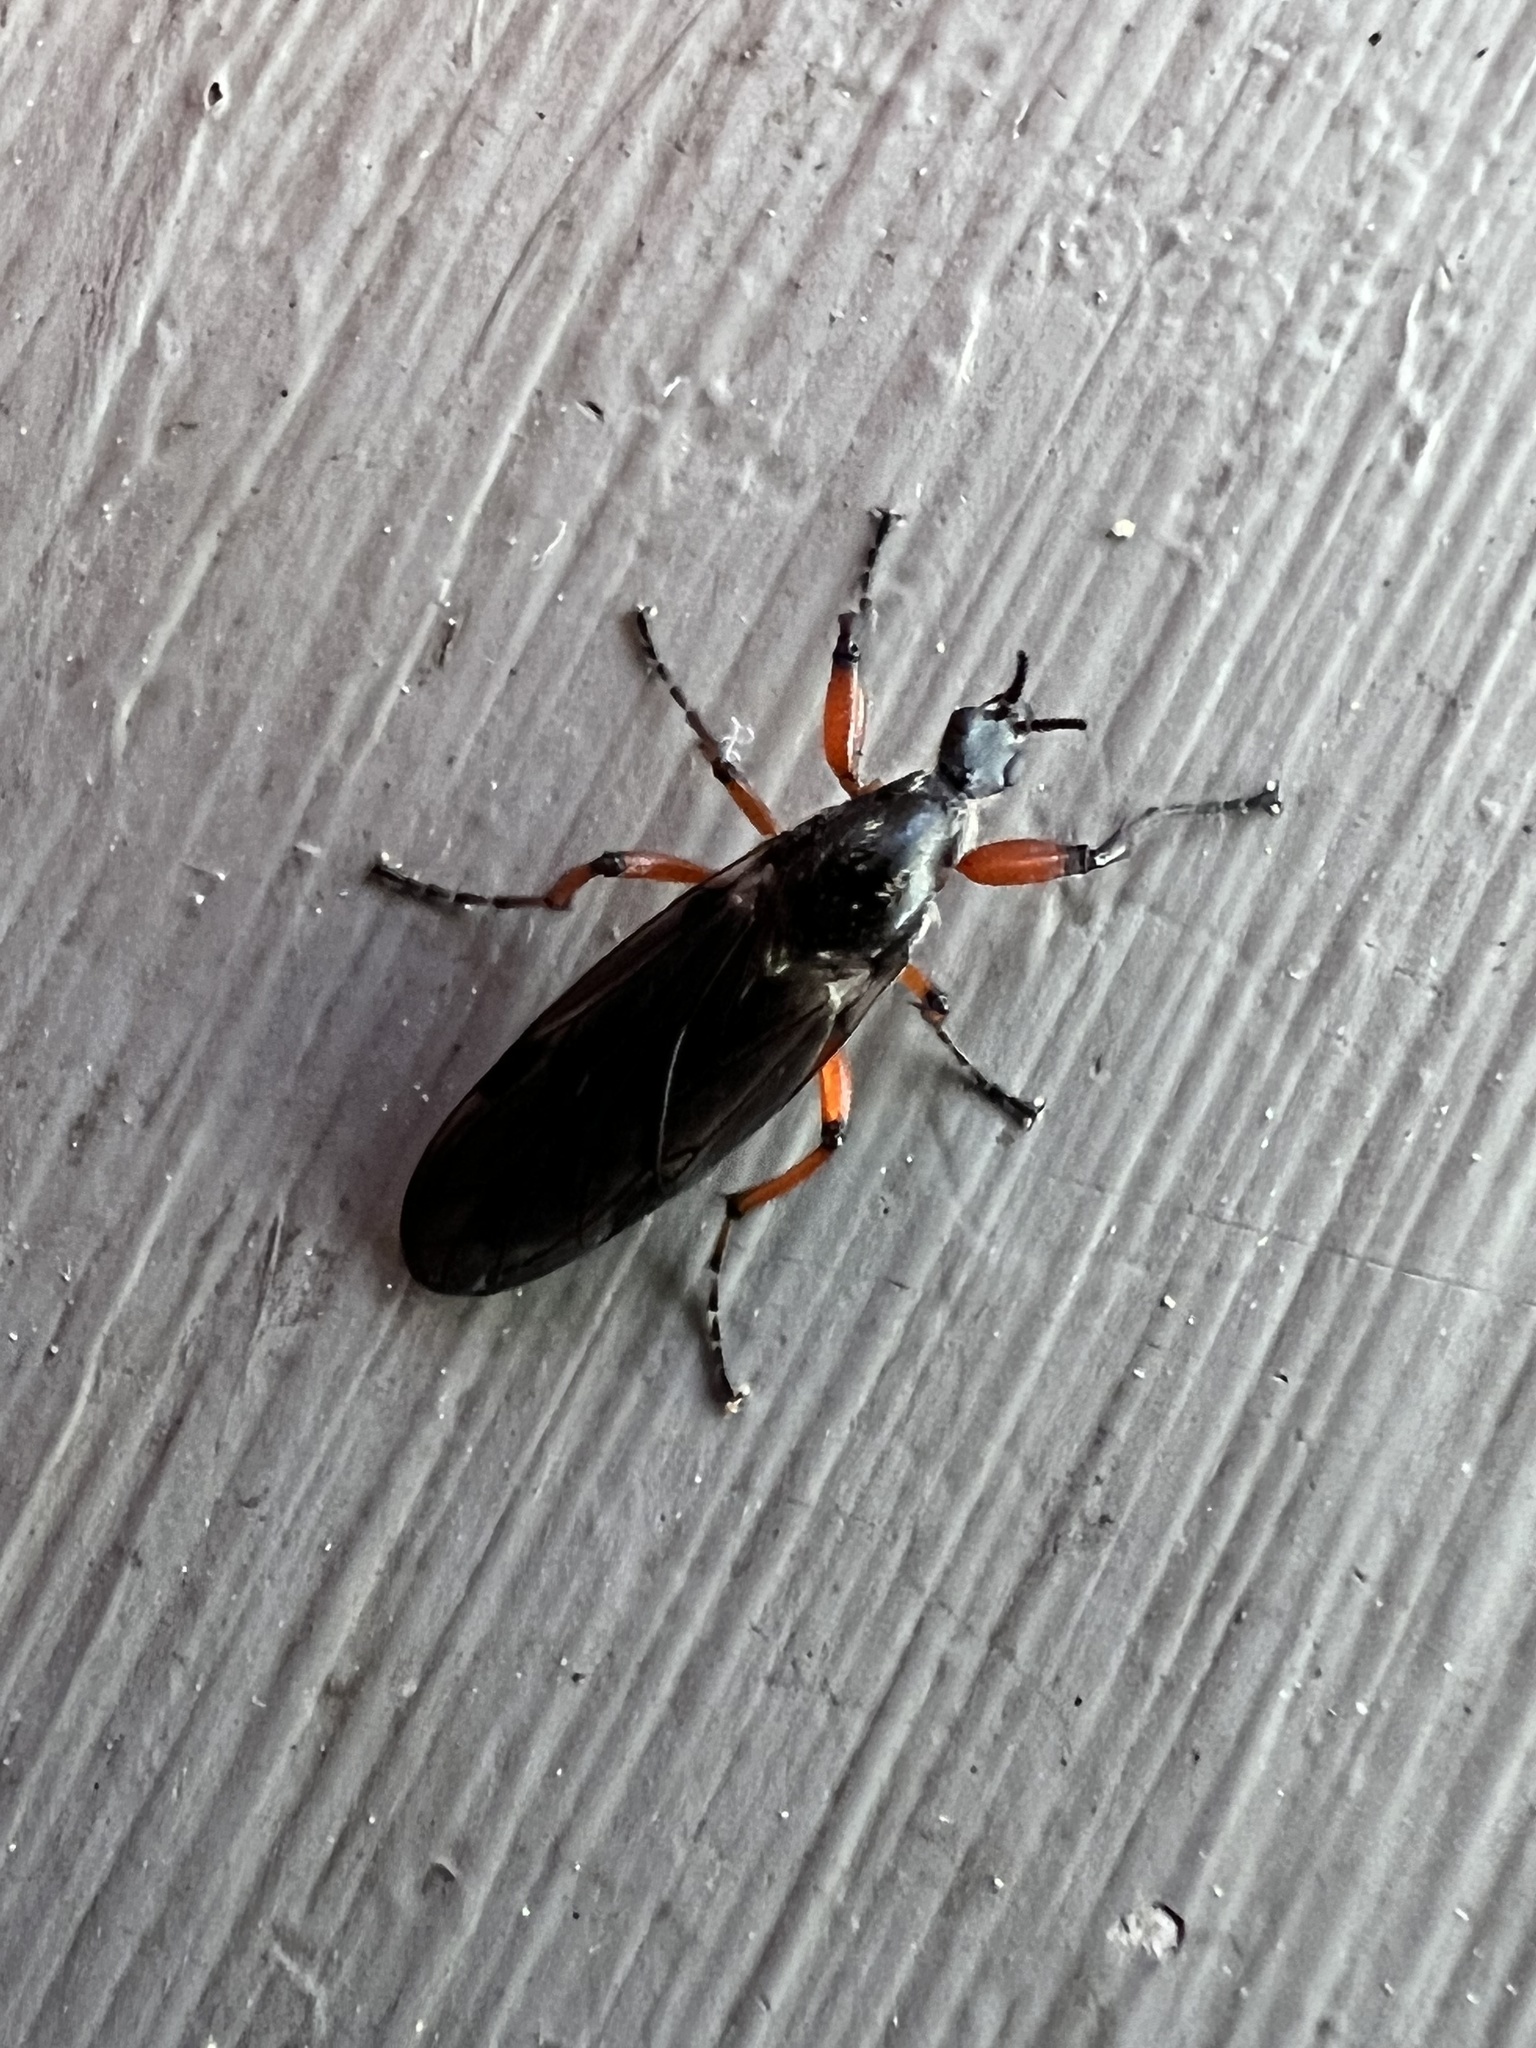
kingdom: Animalia
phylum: Arthropoda
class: Insecta
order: Diptera
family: Bibionidae
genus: Bibio
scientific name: Bibio
